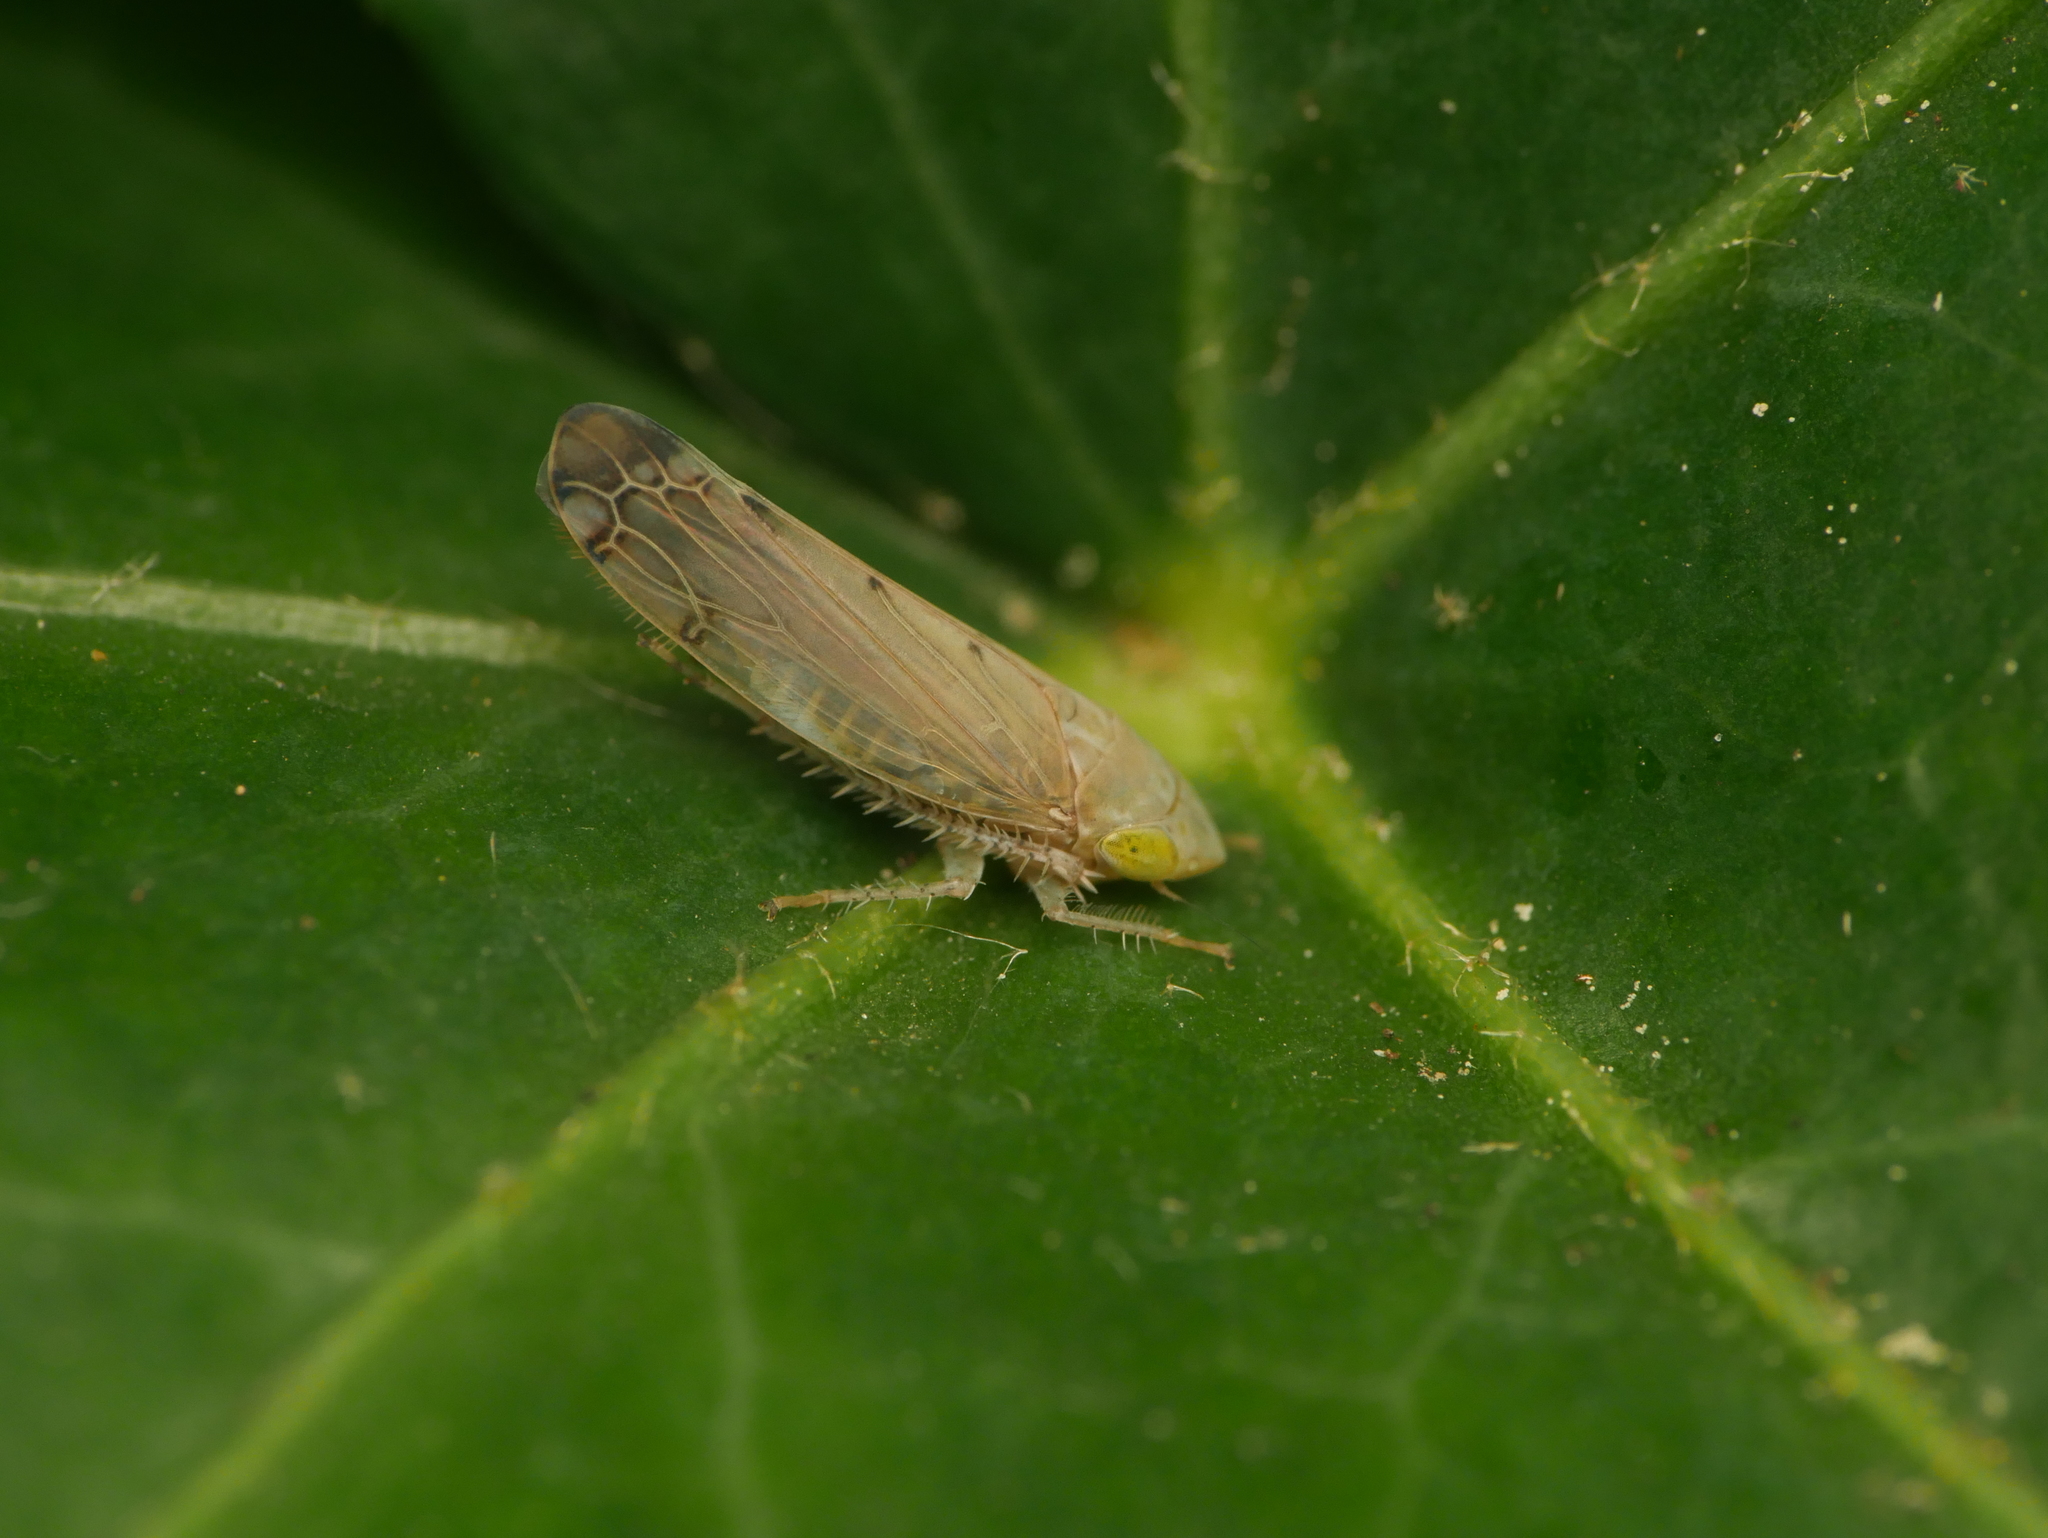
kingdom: Animalia
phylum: Arthropoda
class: Insecta
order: Hemiptera
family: Cicadellidae
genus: Synophropsis
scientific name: Synophropsis lauri
